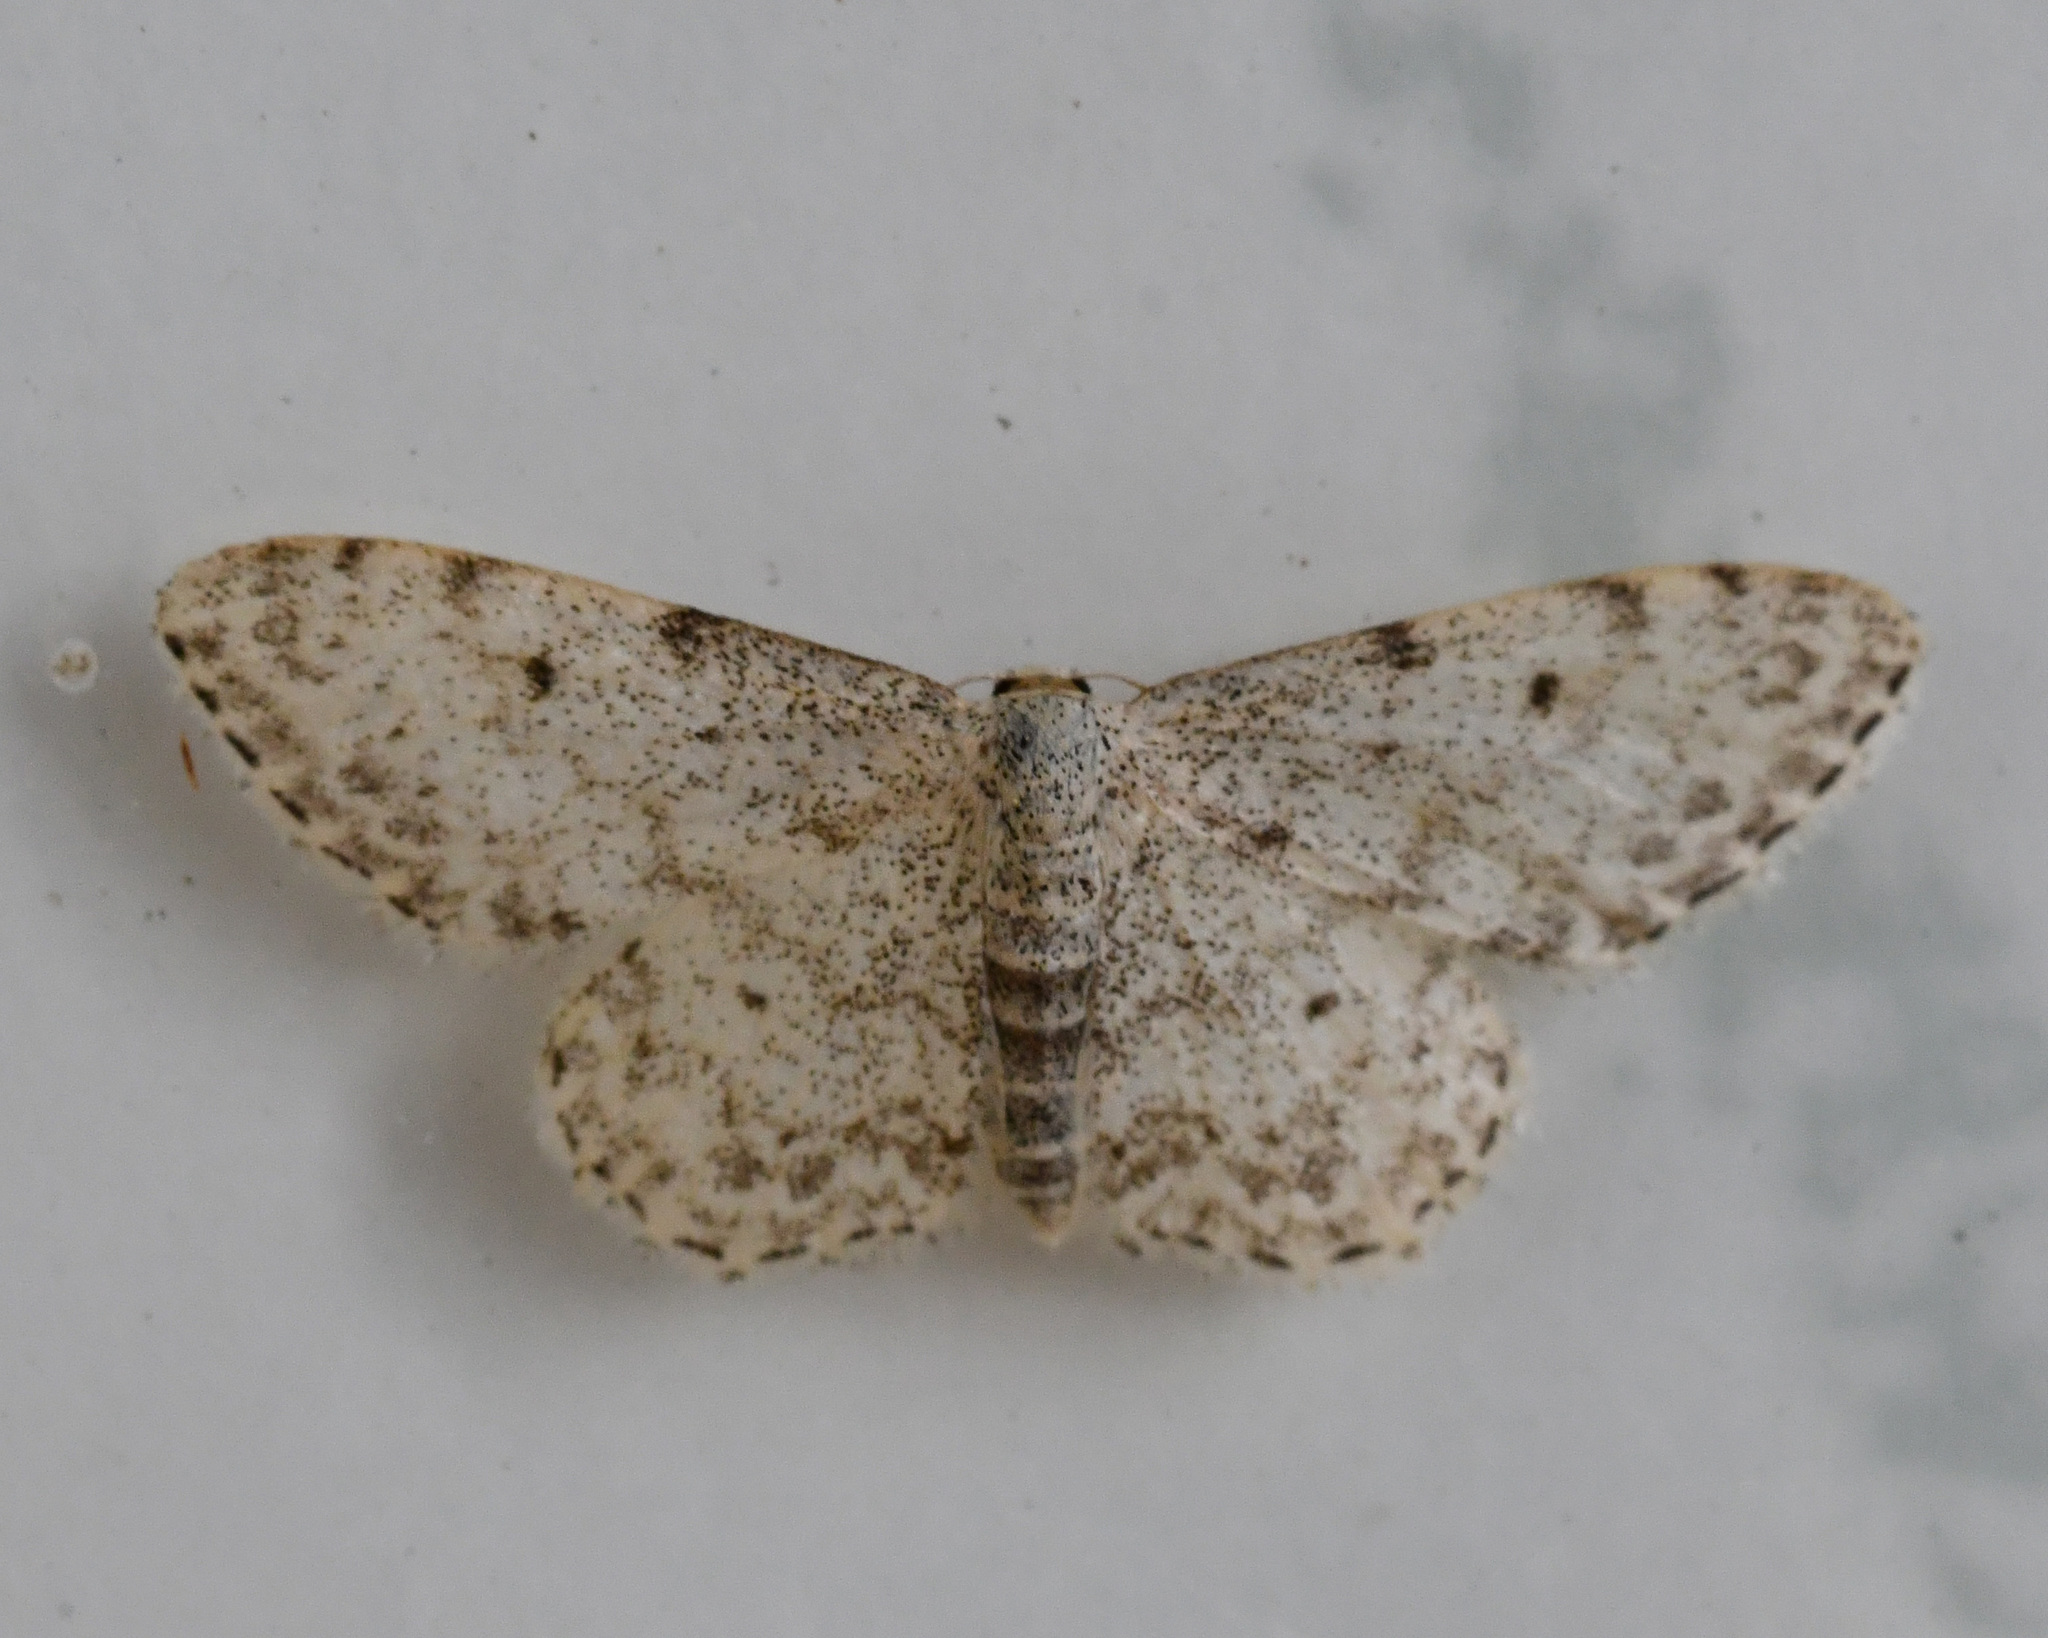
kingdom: Animalia
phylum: Arthropoda
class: Insecta
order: Lepidoptera
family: Geometridae
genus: Idaea
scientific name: Idaea camparia
